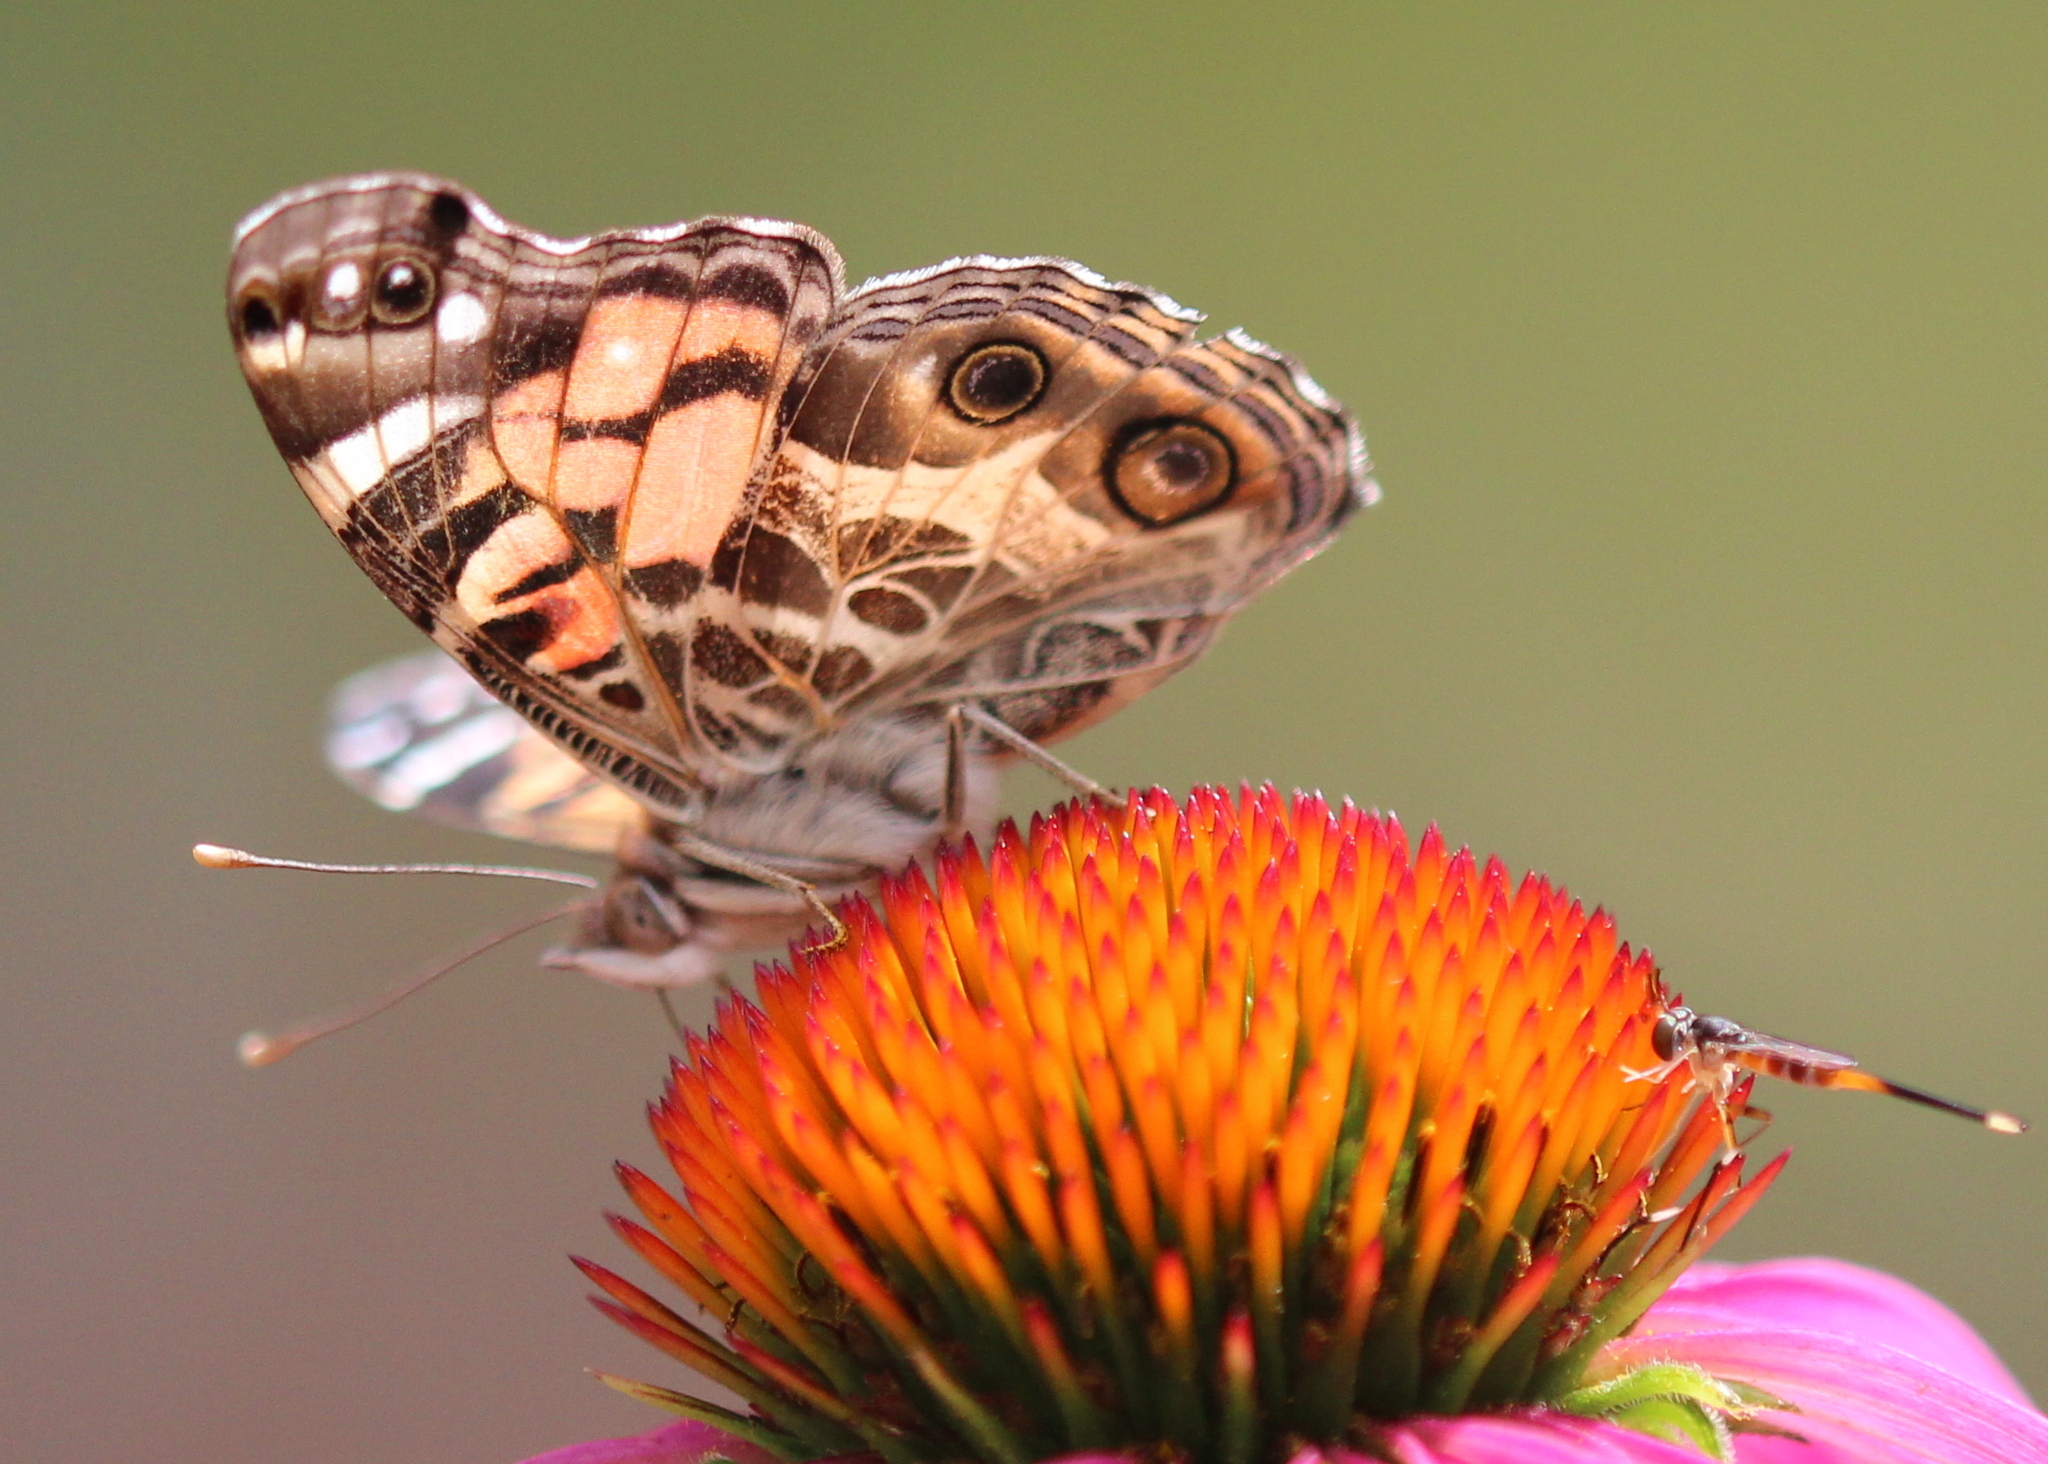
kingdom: Animalia
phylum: Arthropoda
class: Insecta
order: Lepidoptera
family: Nymphalidae
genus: Vanessa
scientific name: Vanessa virginiensis
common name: American lady
